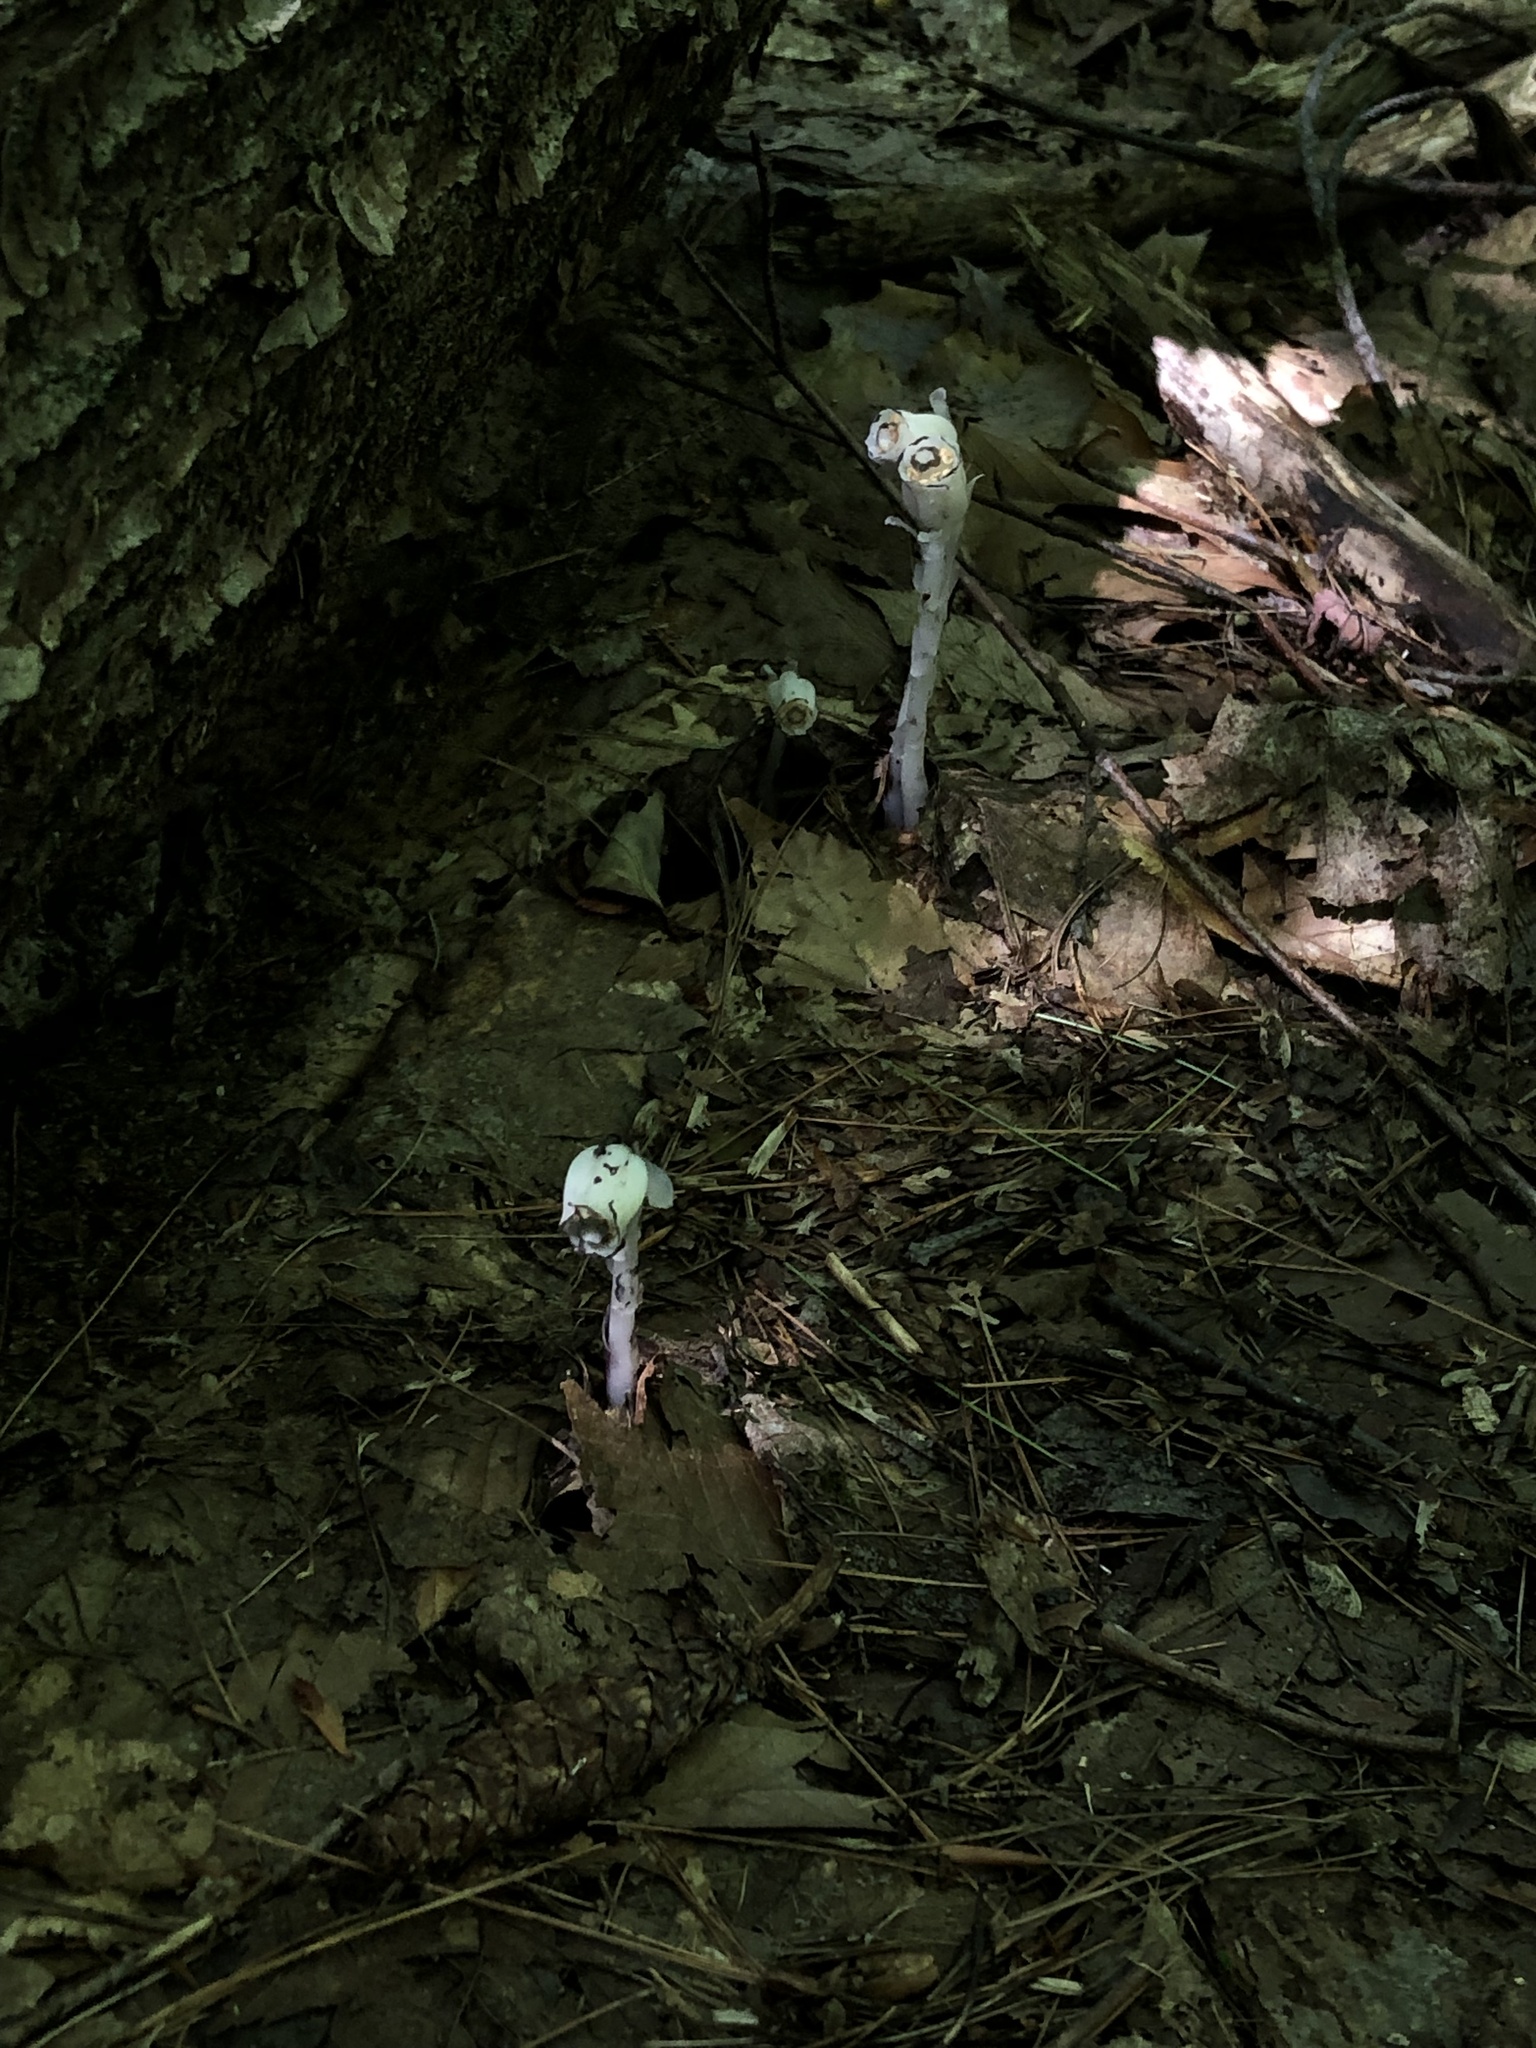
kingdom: Plantae
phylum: Tracheophyta
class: Magnoliopsida
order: Ericales
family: Ericaceae
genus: Monotropa
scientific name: Monotropa uniflora
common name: Convulsion root
